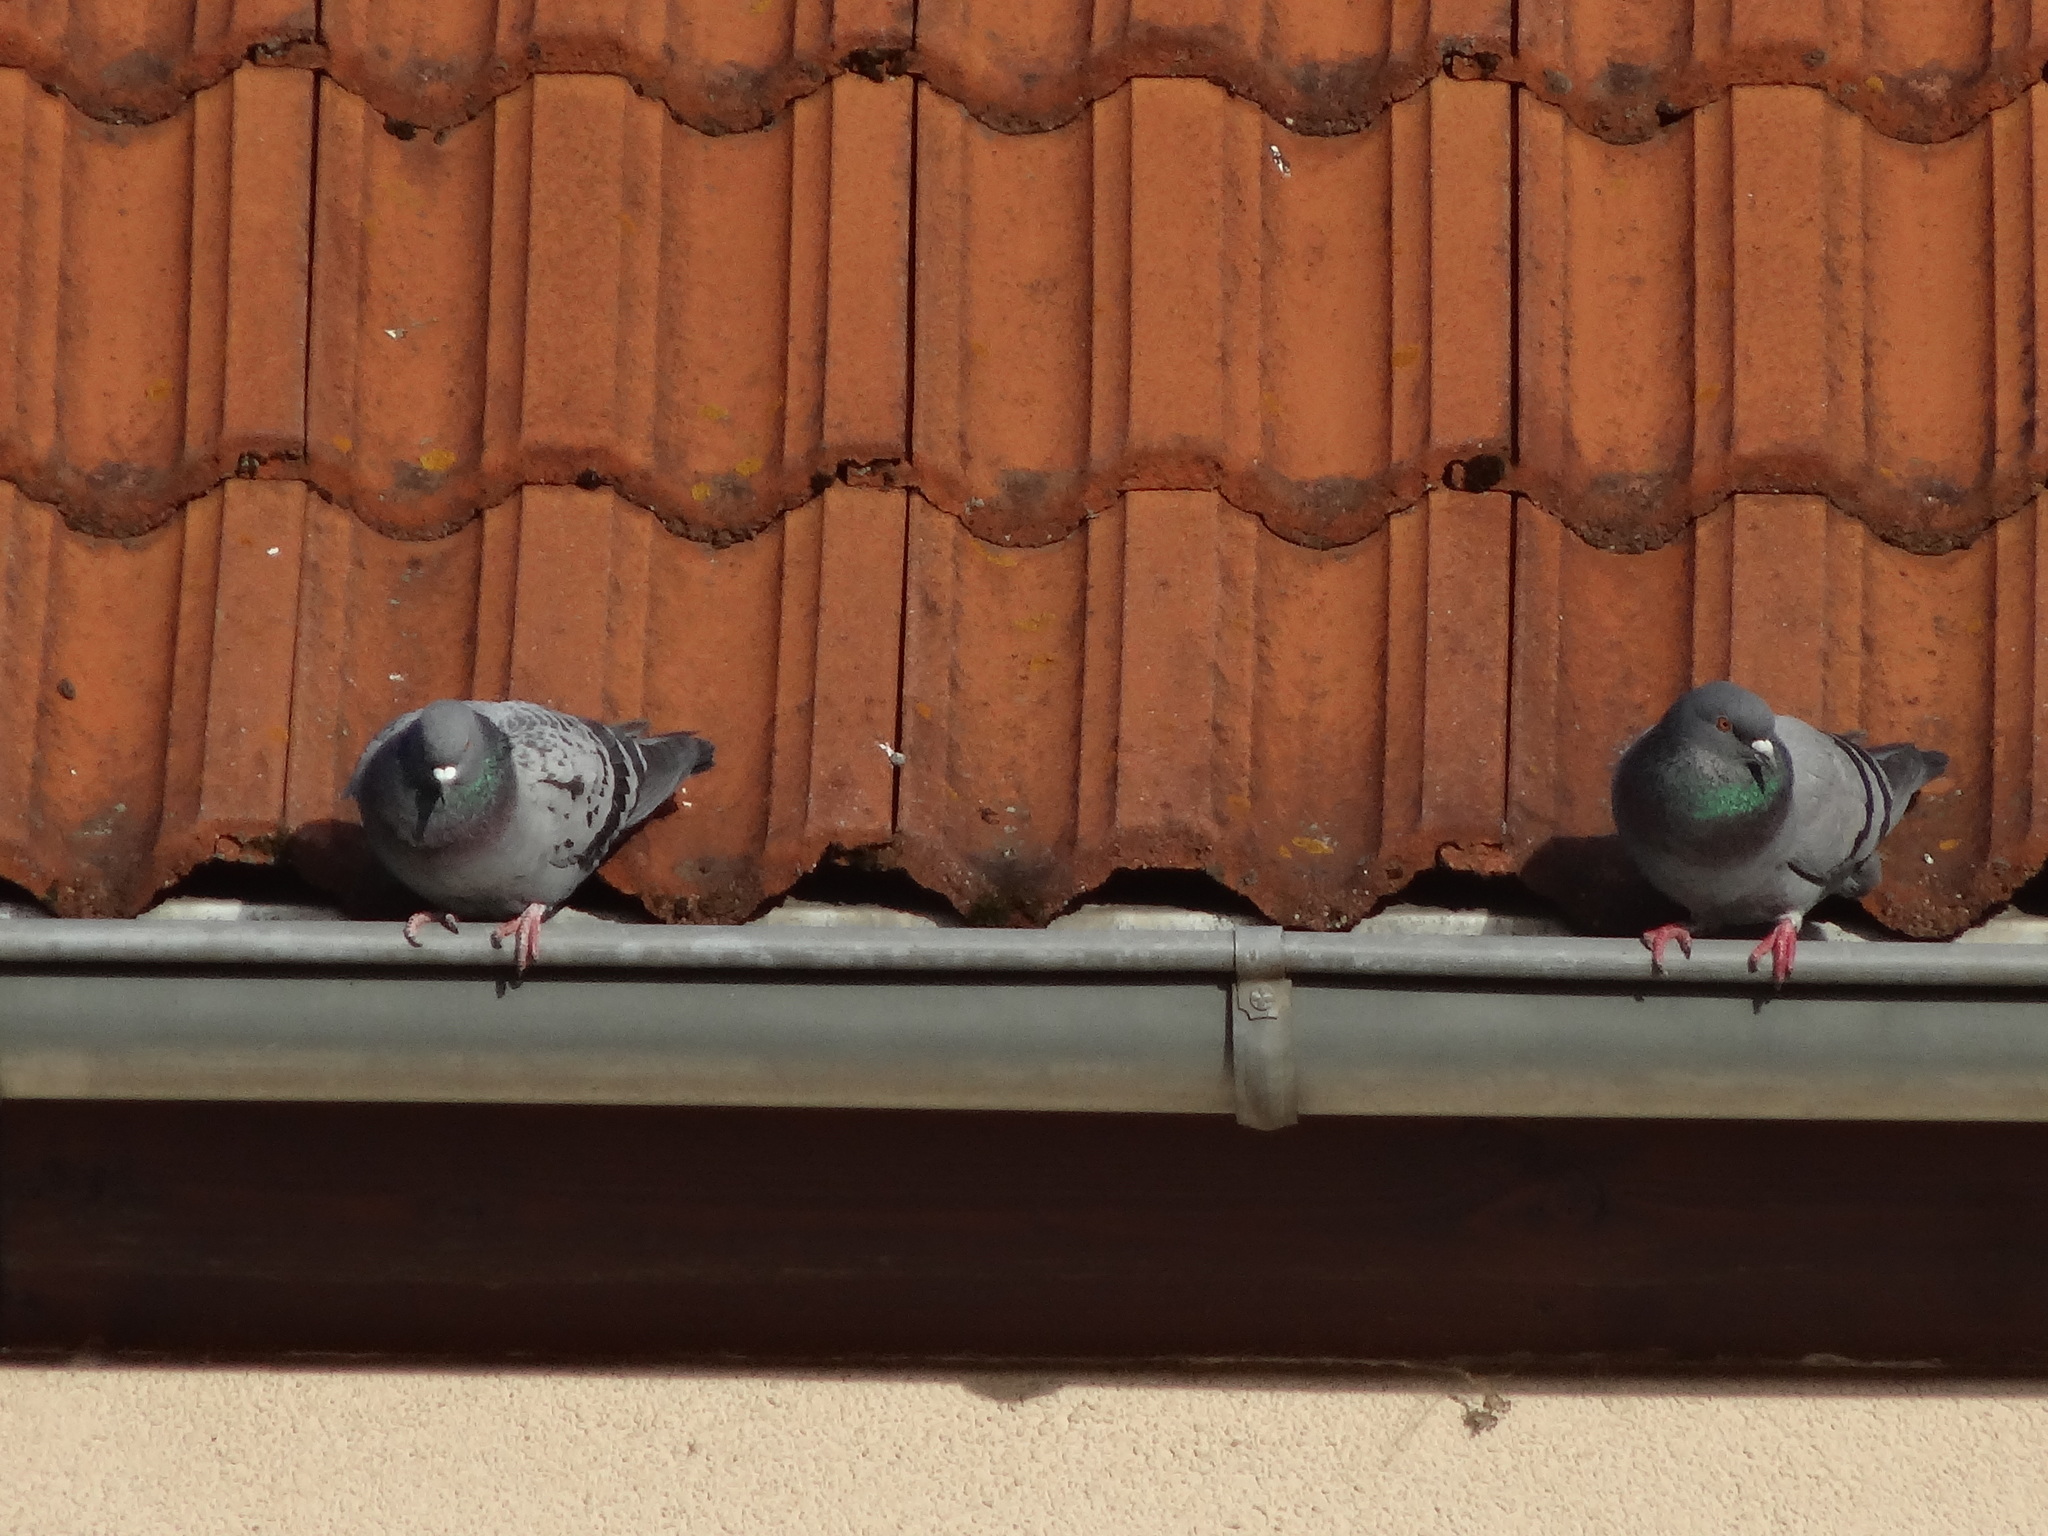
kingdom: Animalia
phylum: Chordata
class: Aves
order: Columbiformes
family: Columbidae
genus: Columba
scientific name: Columba livia
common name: Rock pigeon
